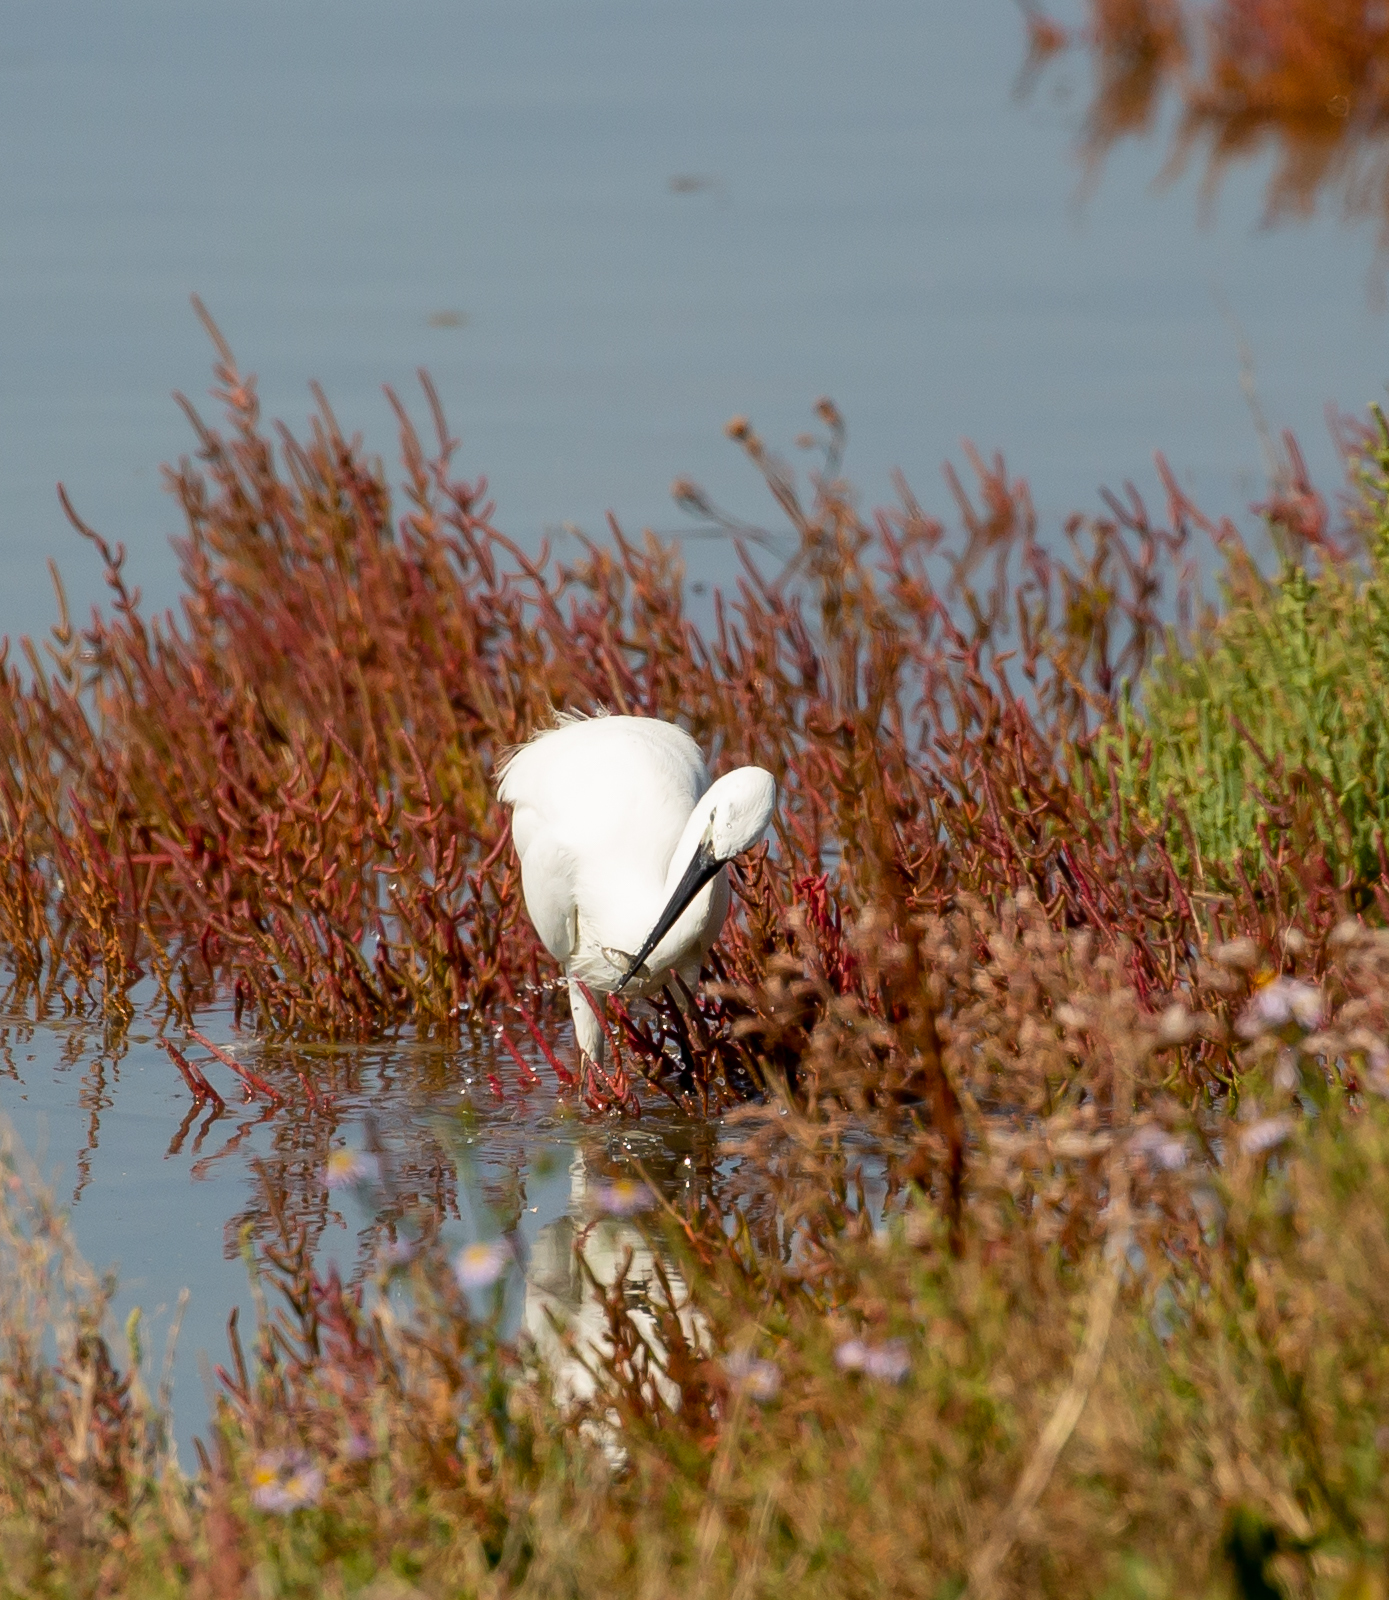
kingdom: Animalia
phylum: Chordata
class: Aves
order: Pelecaniformes
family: Ardeidae
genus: Egretta
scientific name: Egretta garzetta
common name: Little egret
